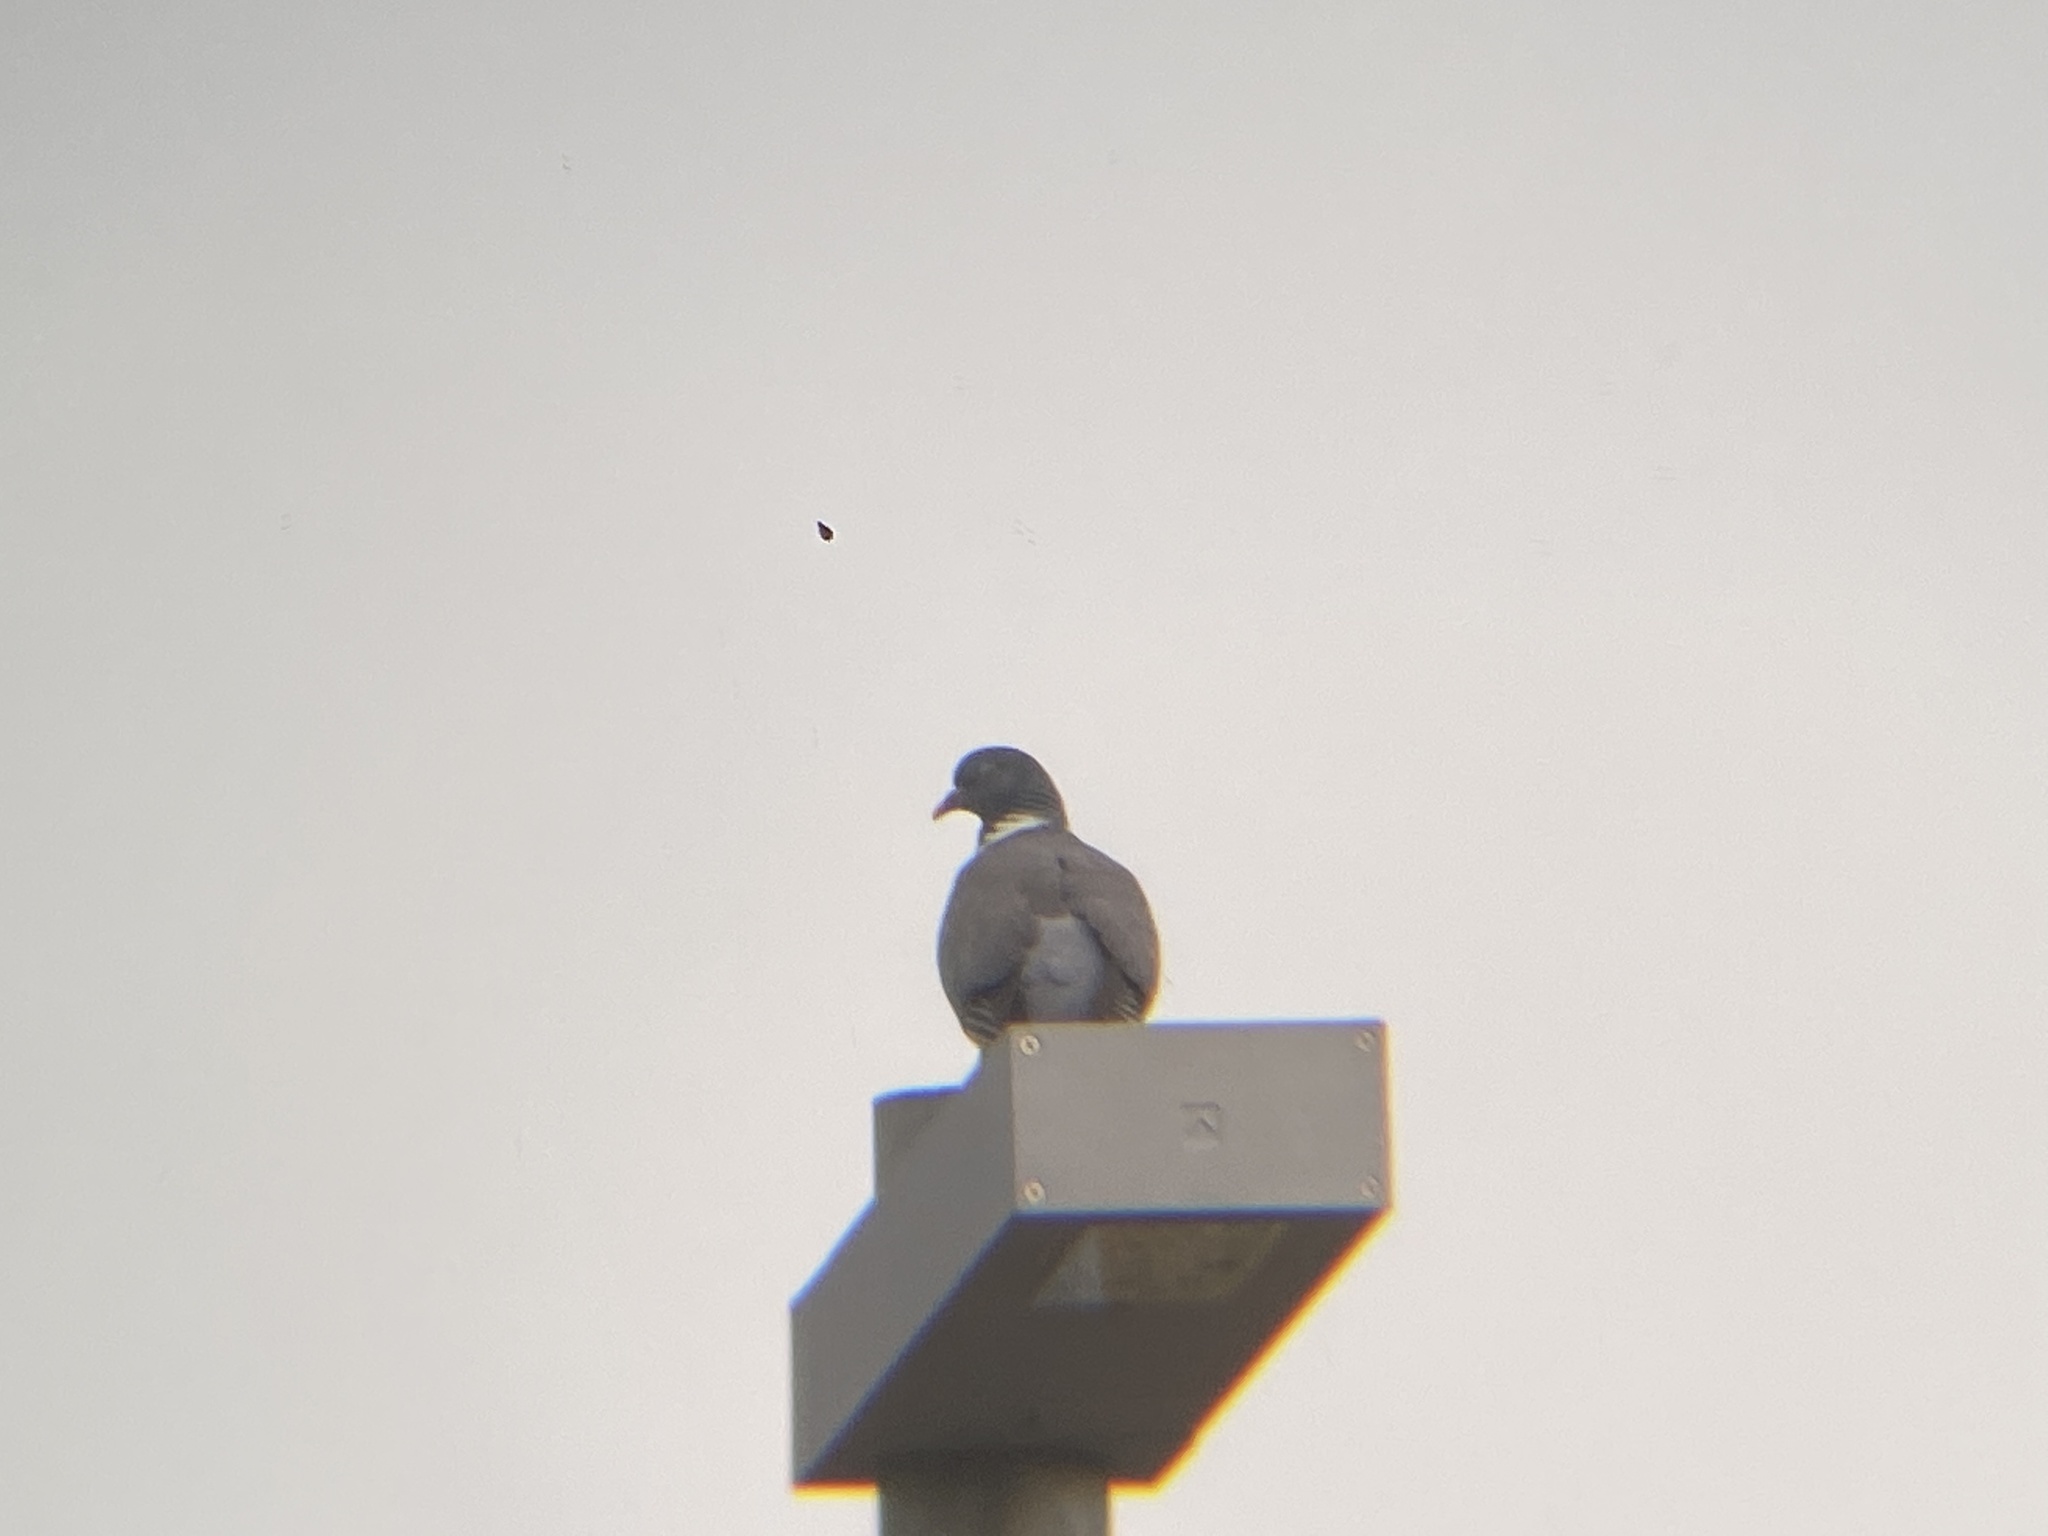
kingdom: Animalia
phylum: Chordata
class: Aves
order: Columbiformes
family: Columbidae
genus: Columba
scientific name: Columba palumbus
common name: Common wood pigeon
